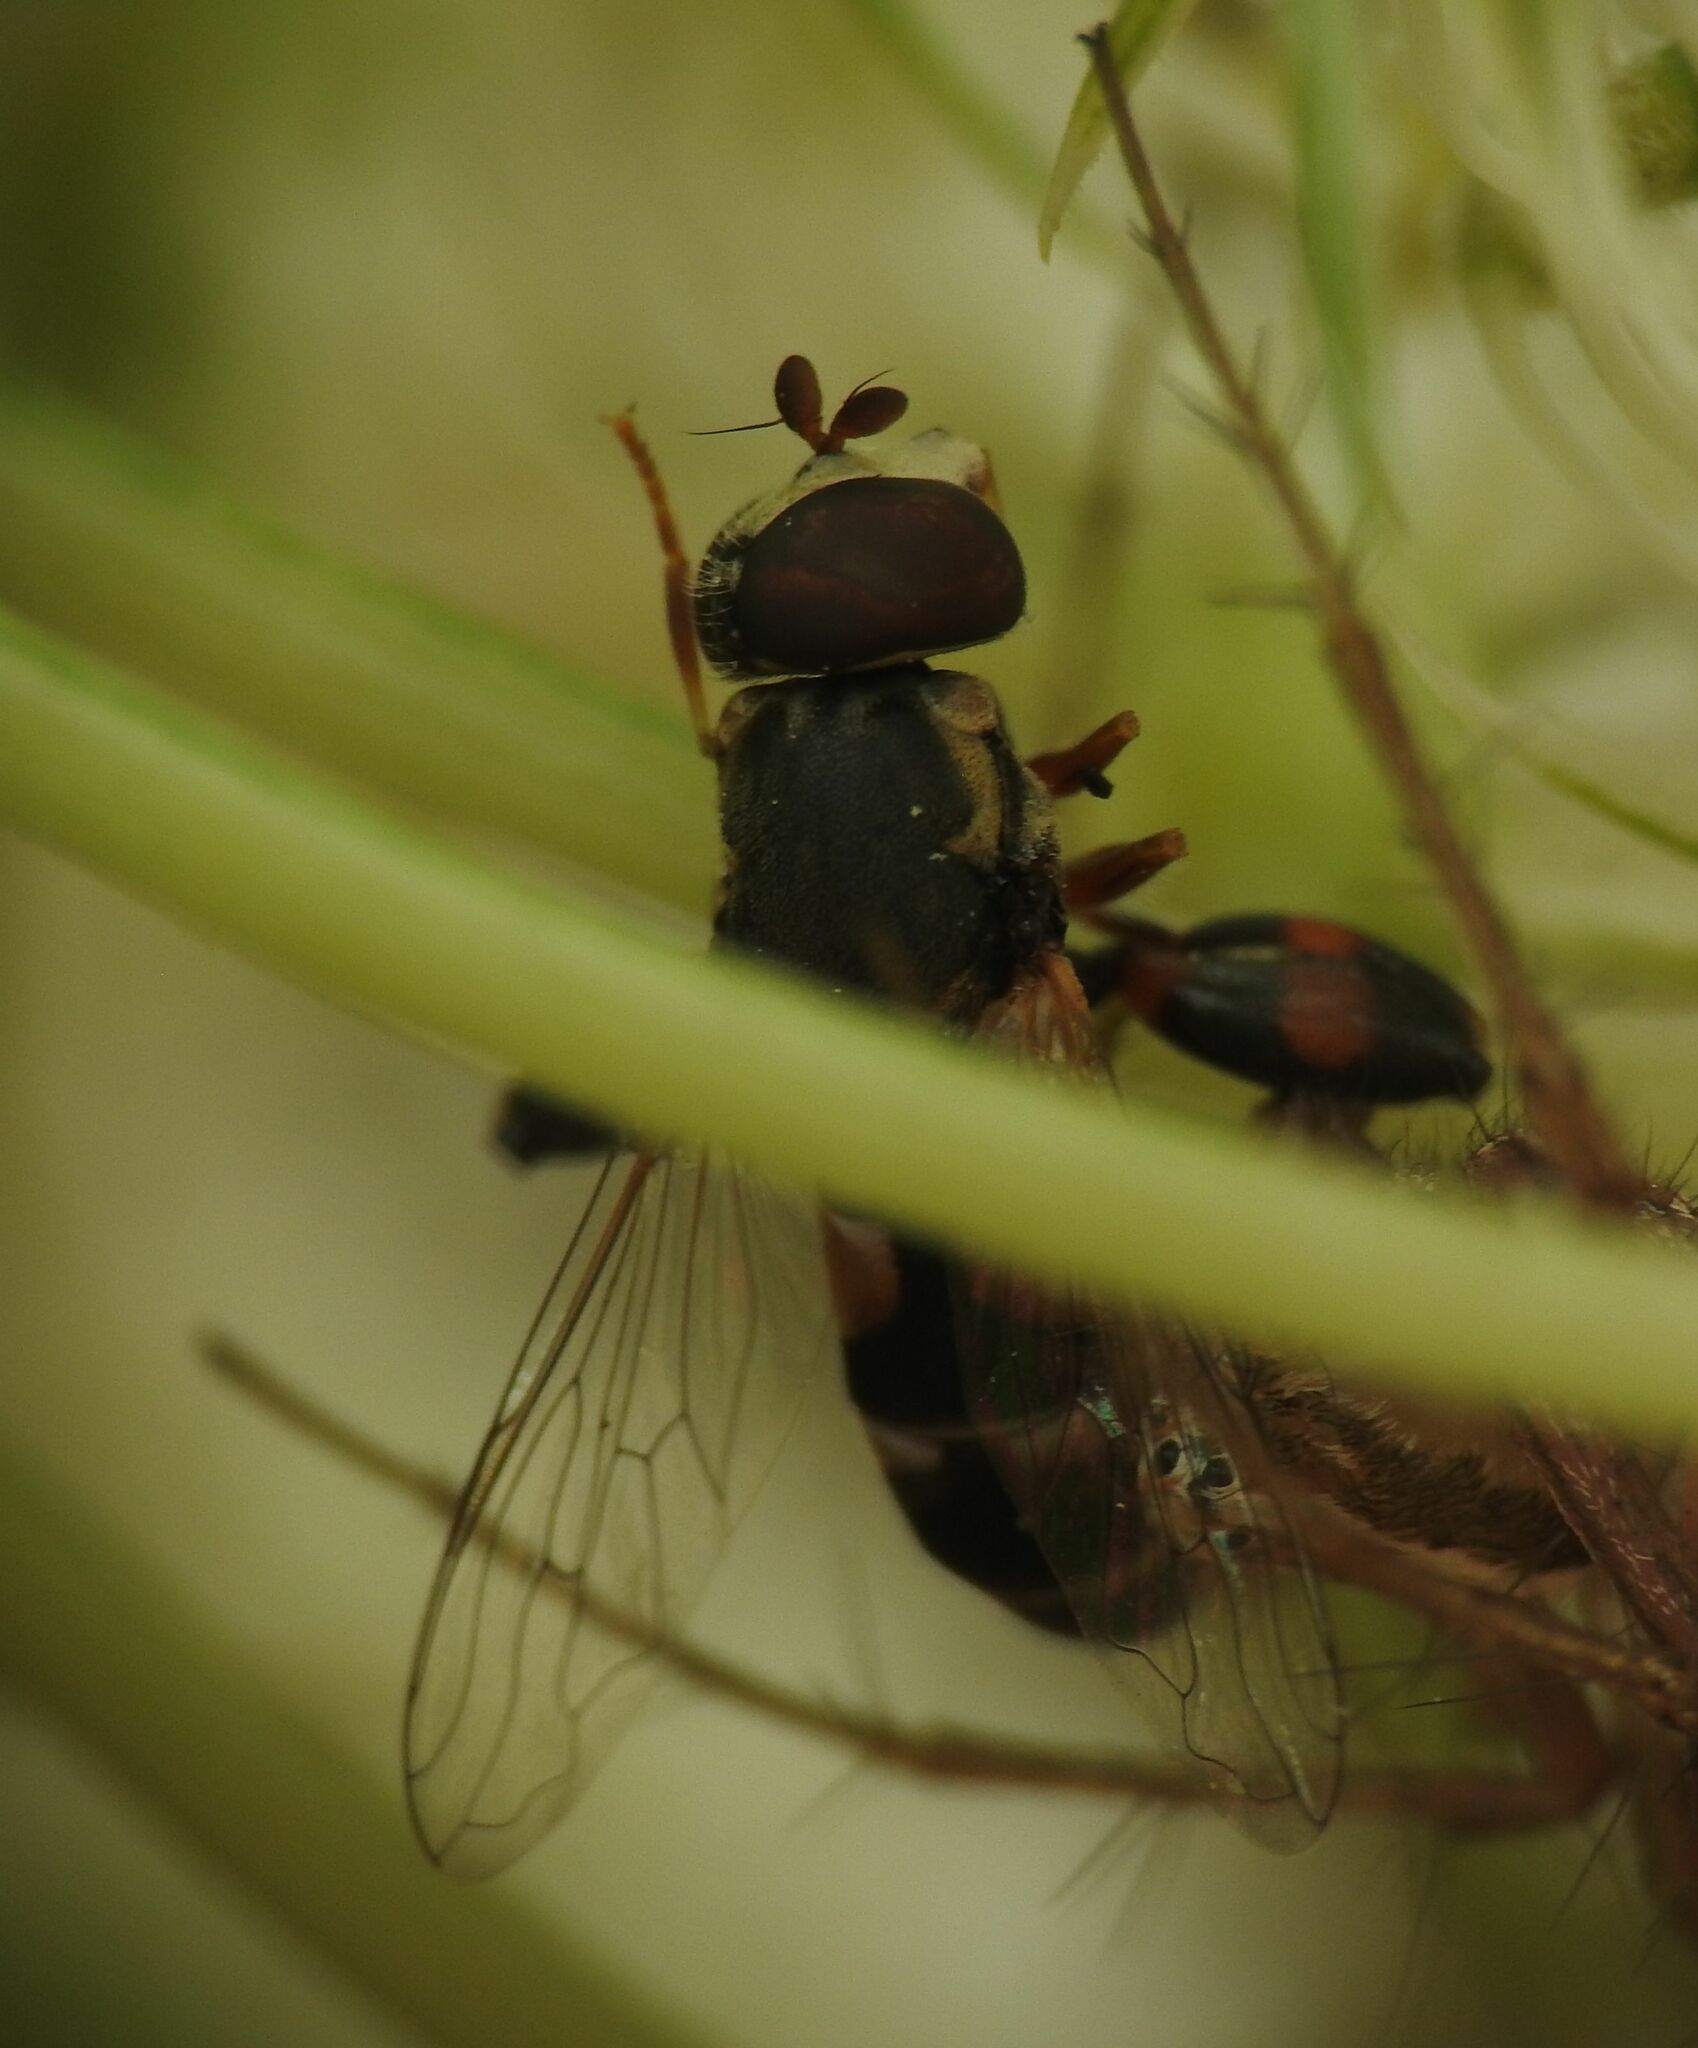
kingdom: Animalia
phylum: Arthropoda
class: Insecta
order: Diptera
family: Syrphidae
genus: Syritta
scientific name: Syritta pipiens
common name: Hover fly
